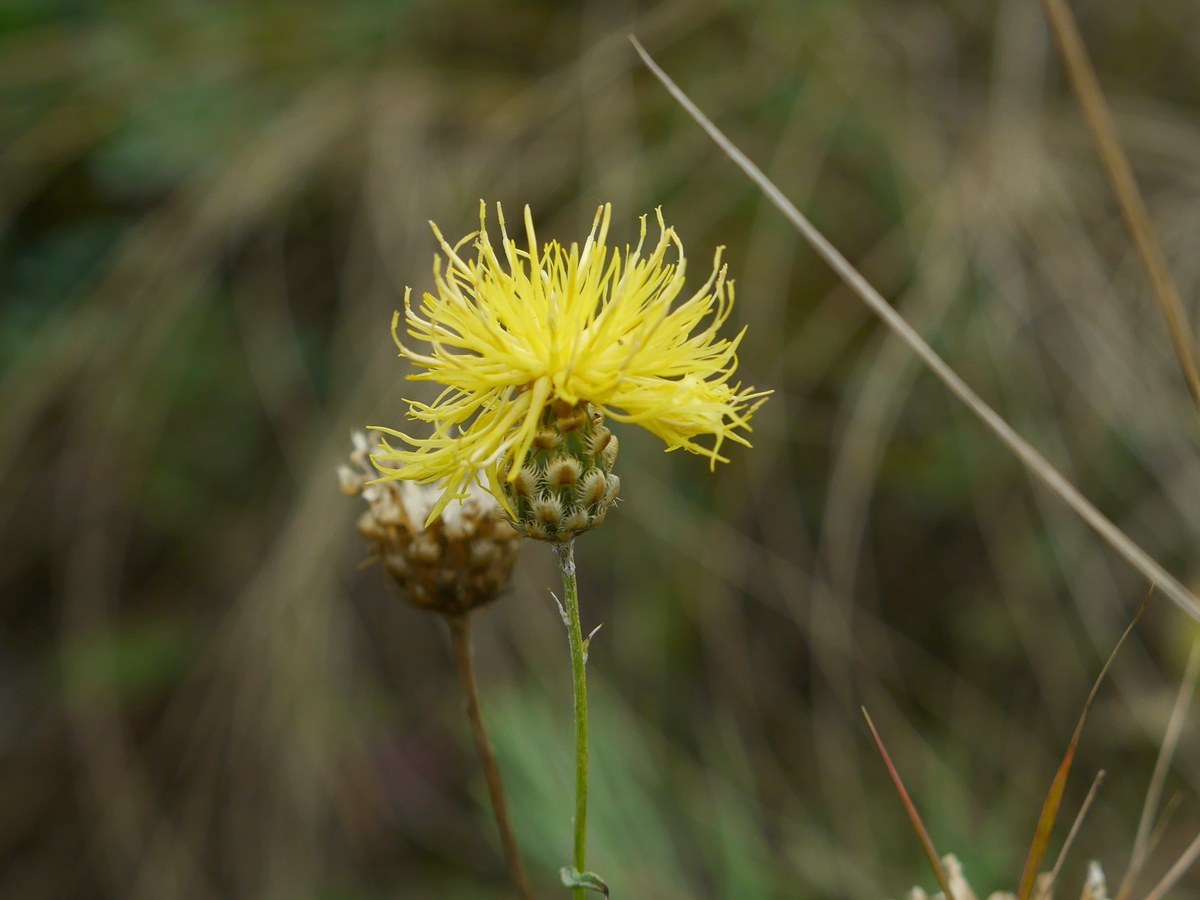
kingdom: Plantae
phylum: Tracheophyta
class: Magnoliopsida
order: Asterales
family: Asteraceae
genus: Centaurea
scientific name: Centaurea orientalis
